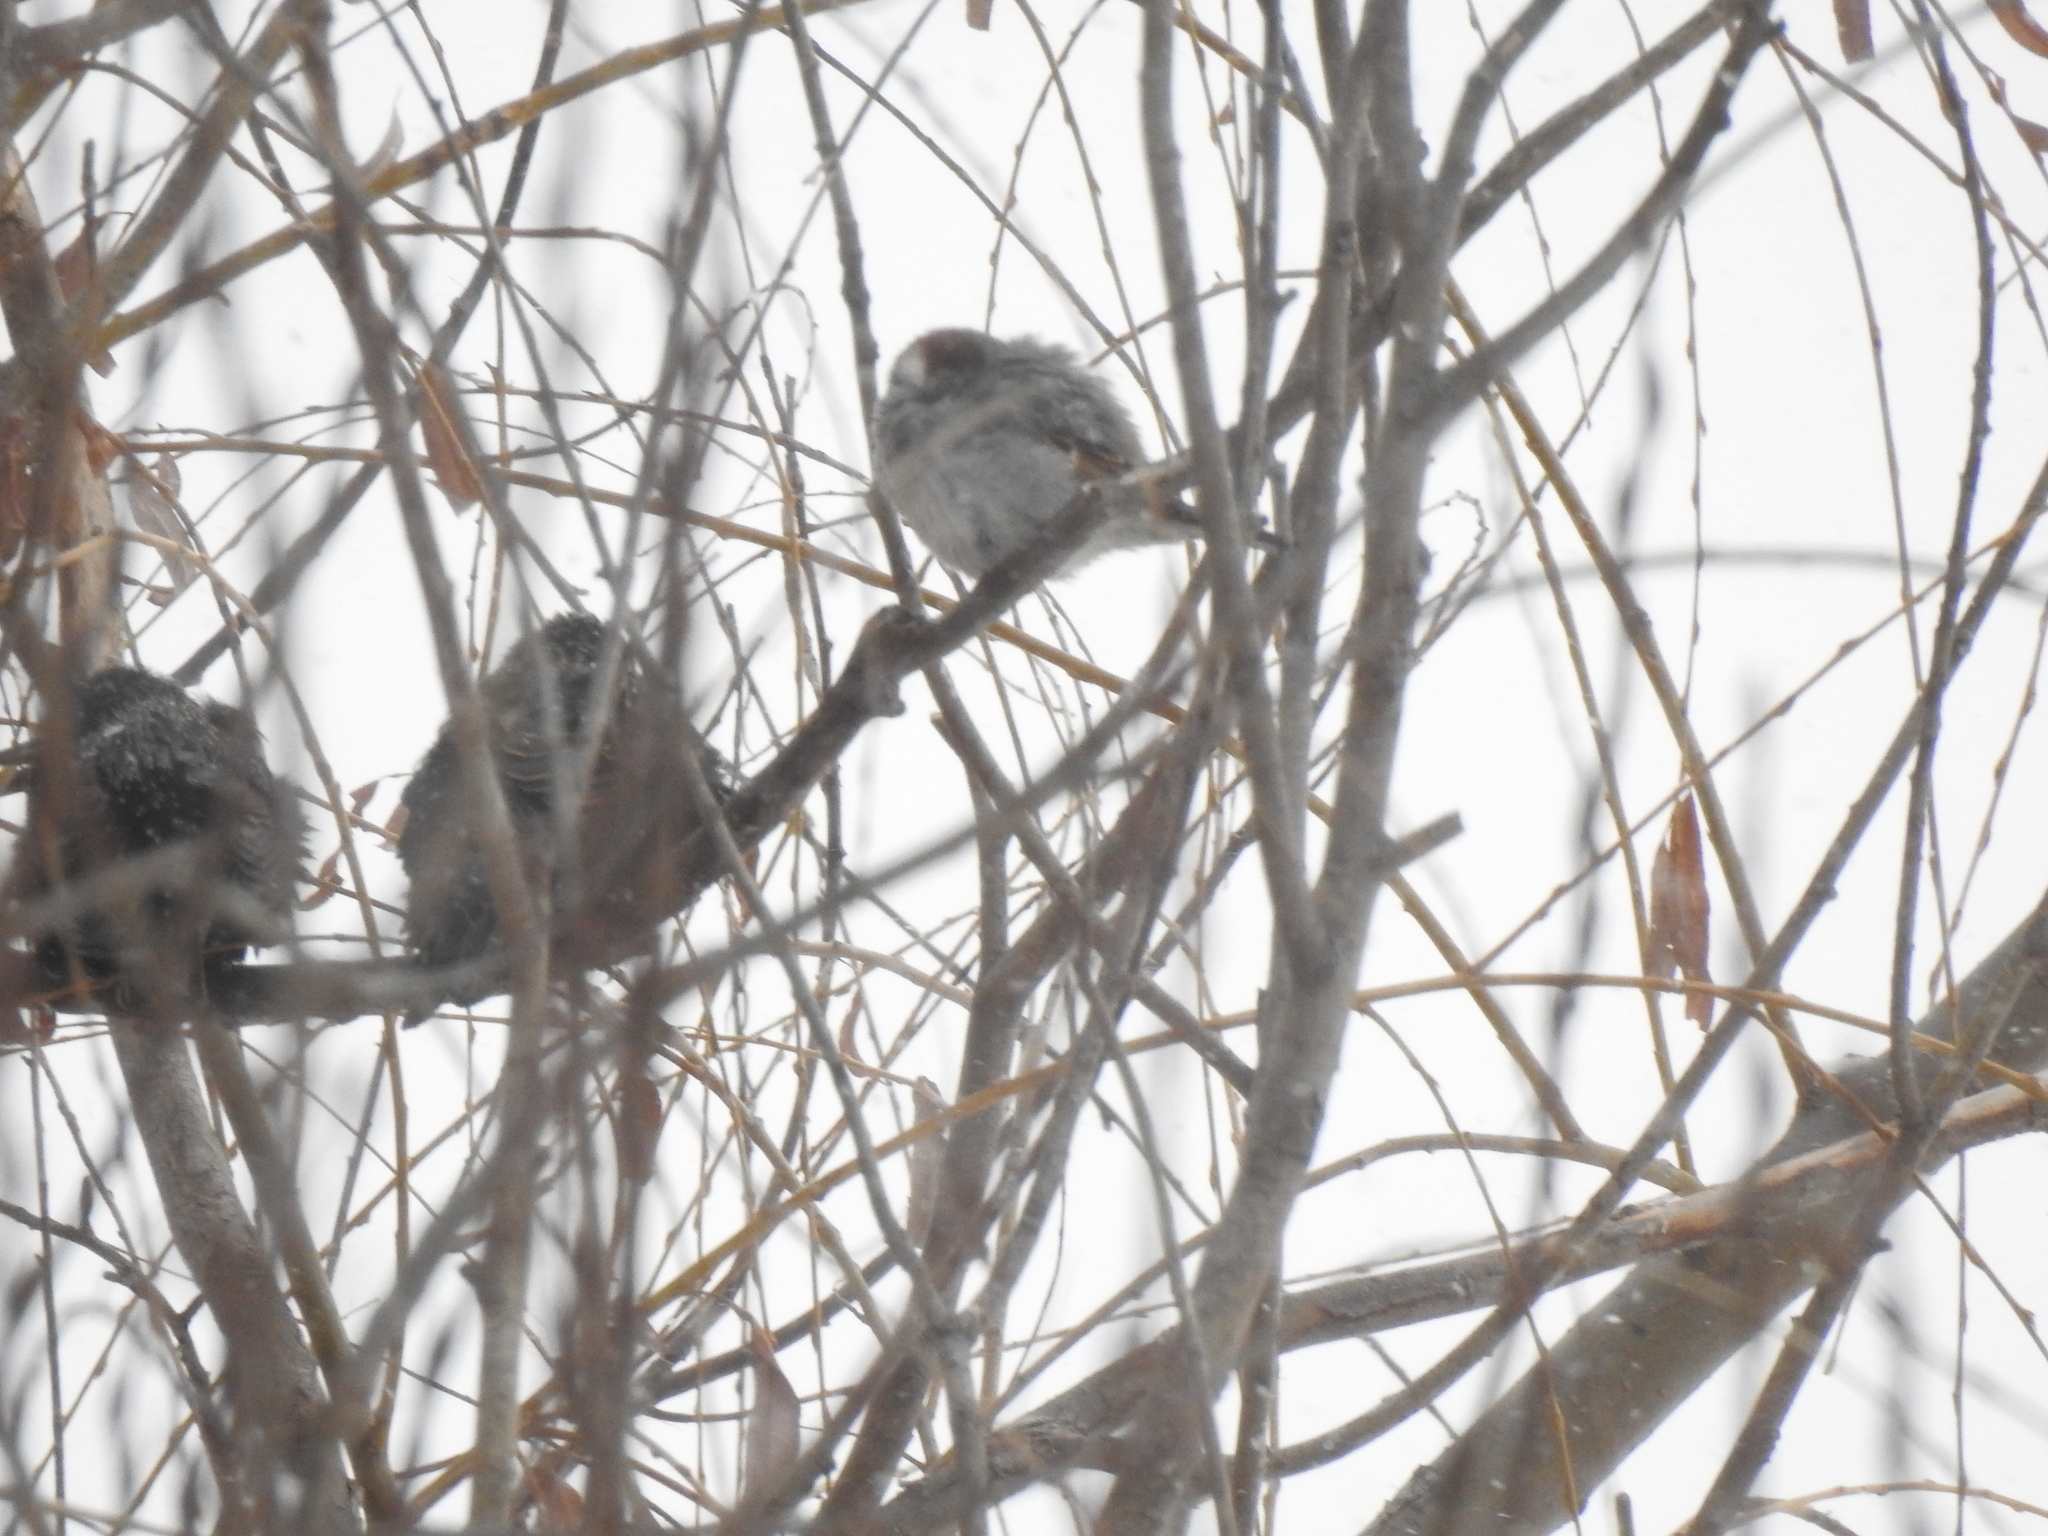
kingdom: Animalia
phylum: Chordata
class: Aves
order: Passeriformes
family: Passeridae
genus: Passer
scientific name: Passer domesticus
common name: House sparrow
